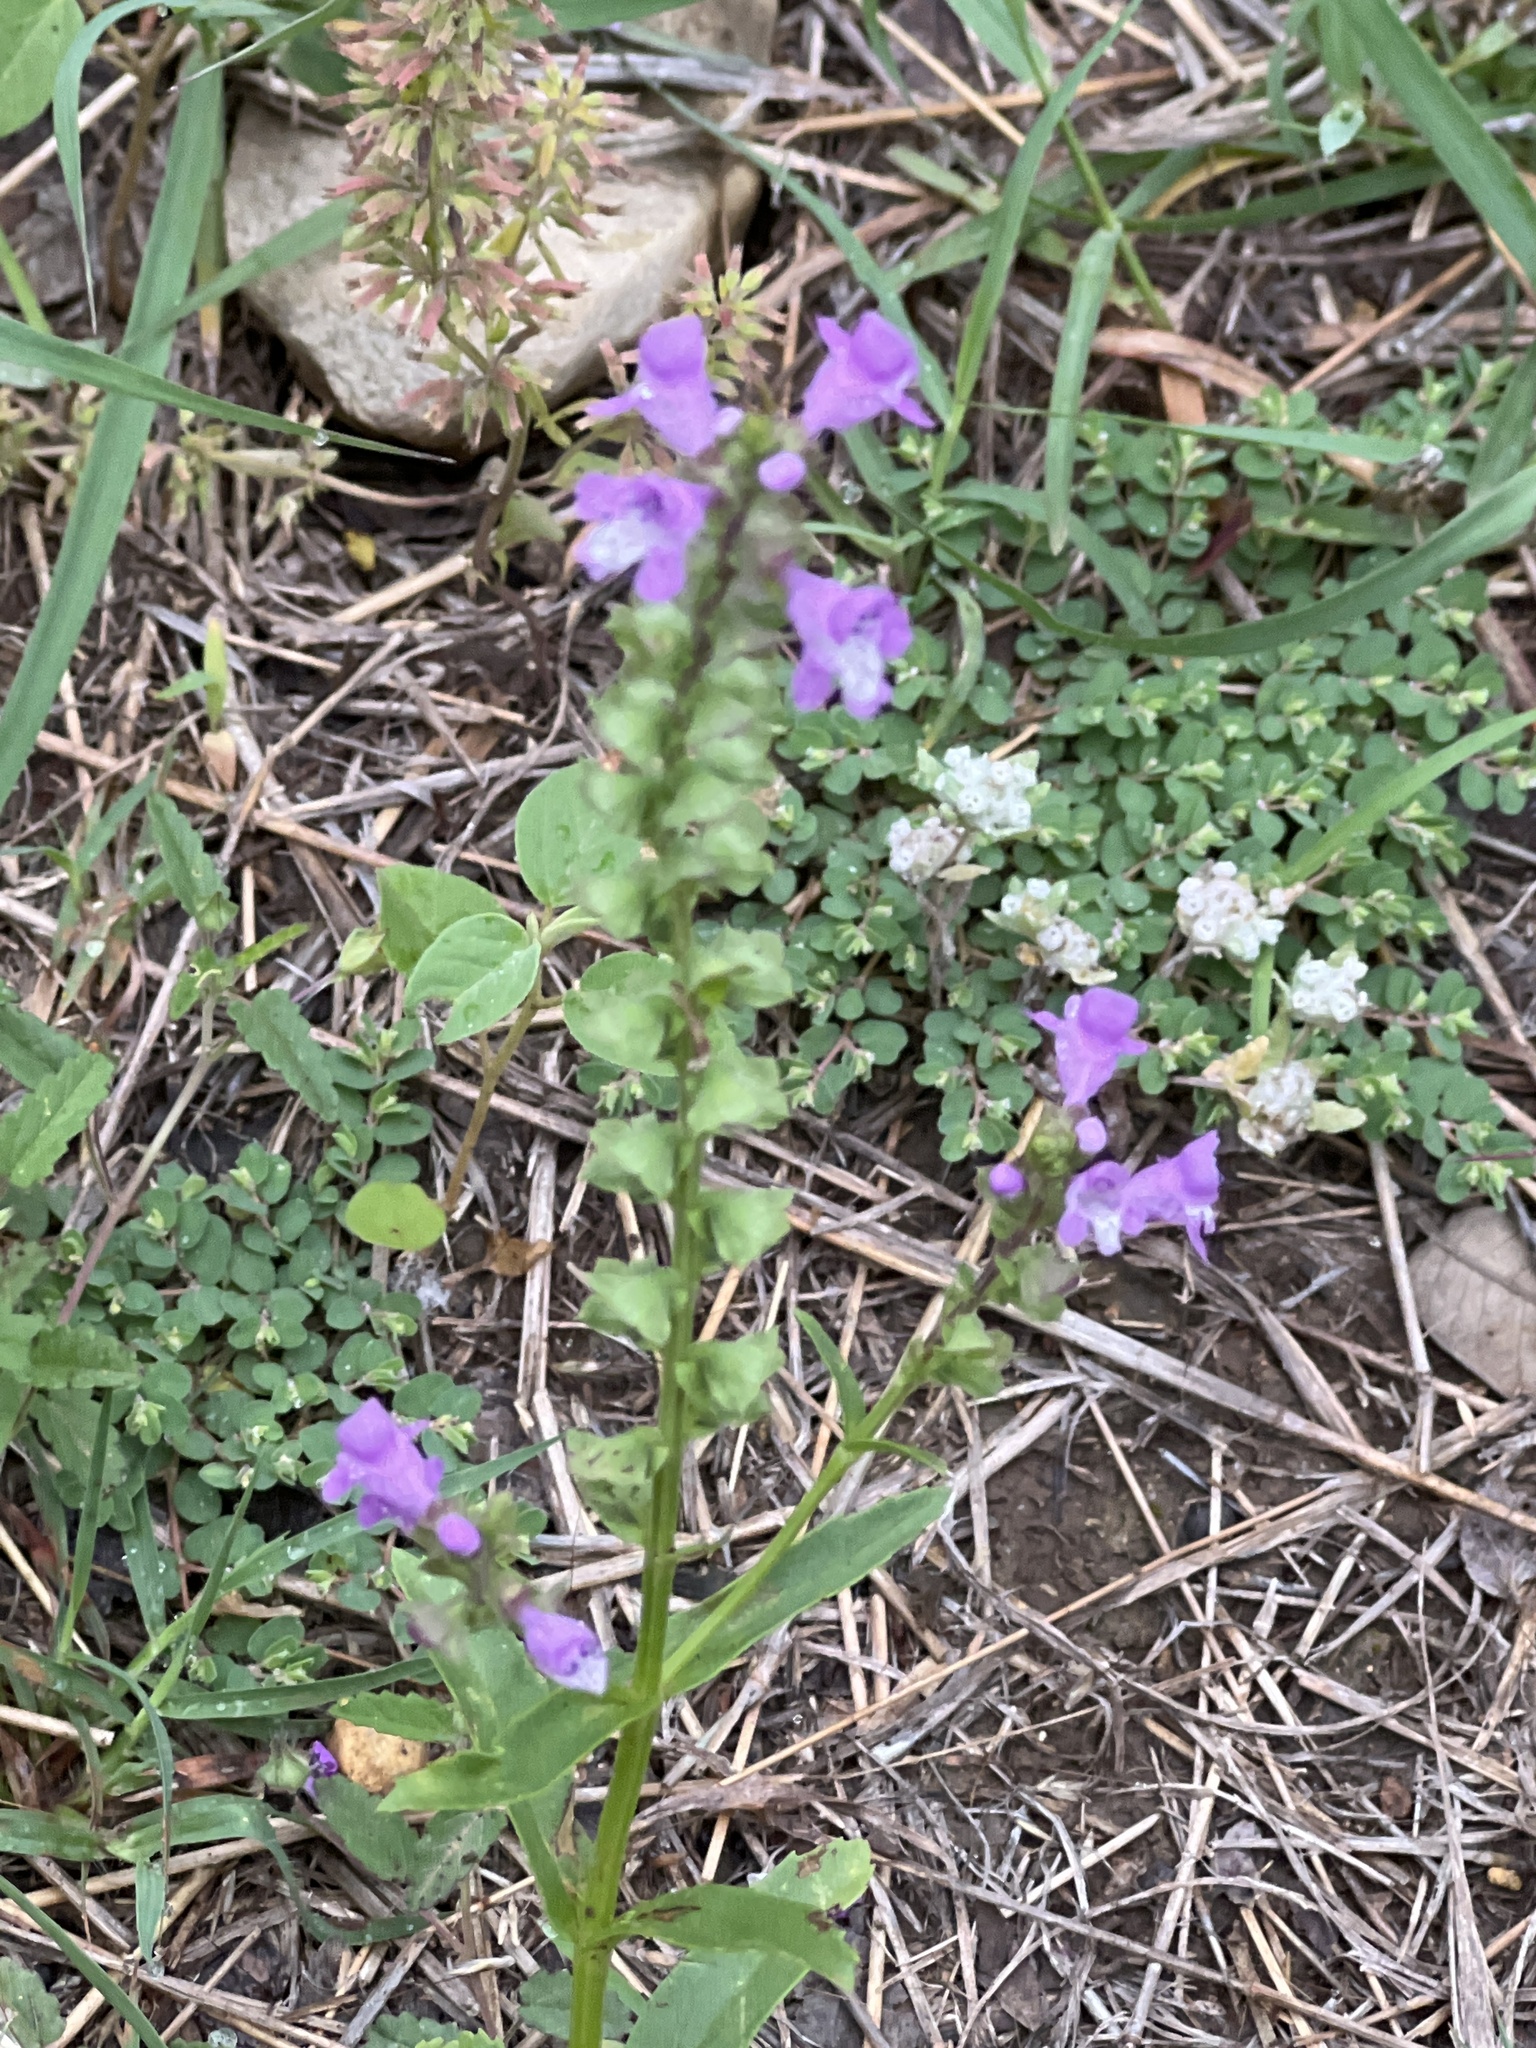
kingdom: Plantae
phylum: Tracheophyta
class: Magnoliopsida
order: Lamiales
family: Lamiaceae
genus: Warnockia
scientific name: Warnockia scutellarioides
